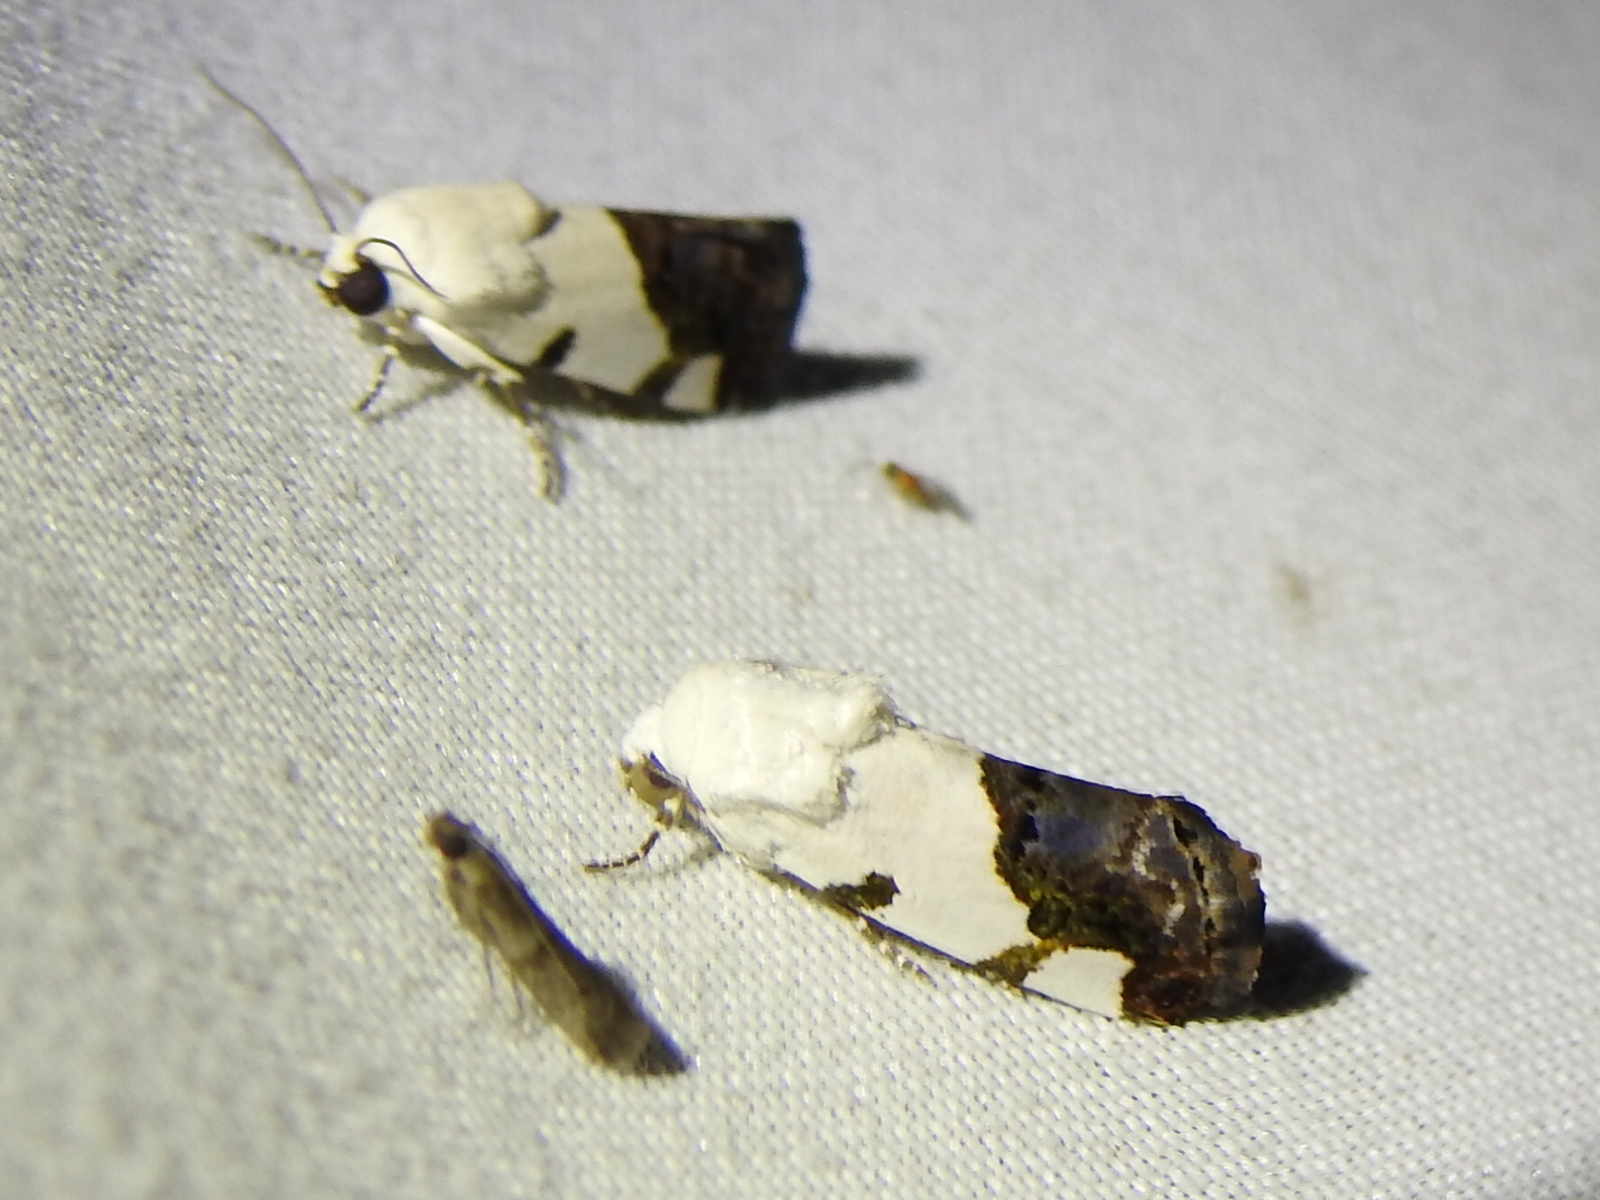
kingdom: Animalia
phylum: Arthropoda
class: Insecta
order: Lepidoptera
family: Noctuidae
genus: Acontia
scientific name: Acontia quadriplaga
